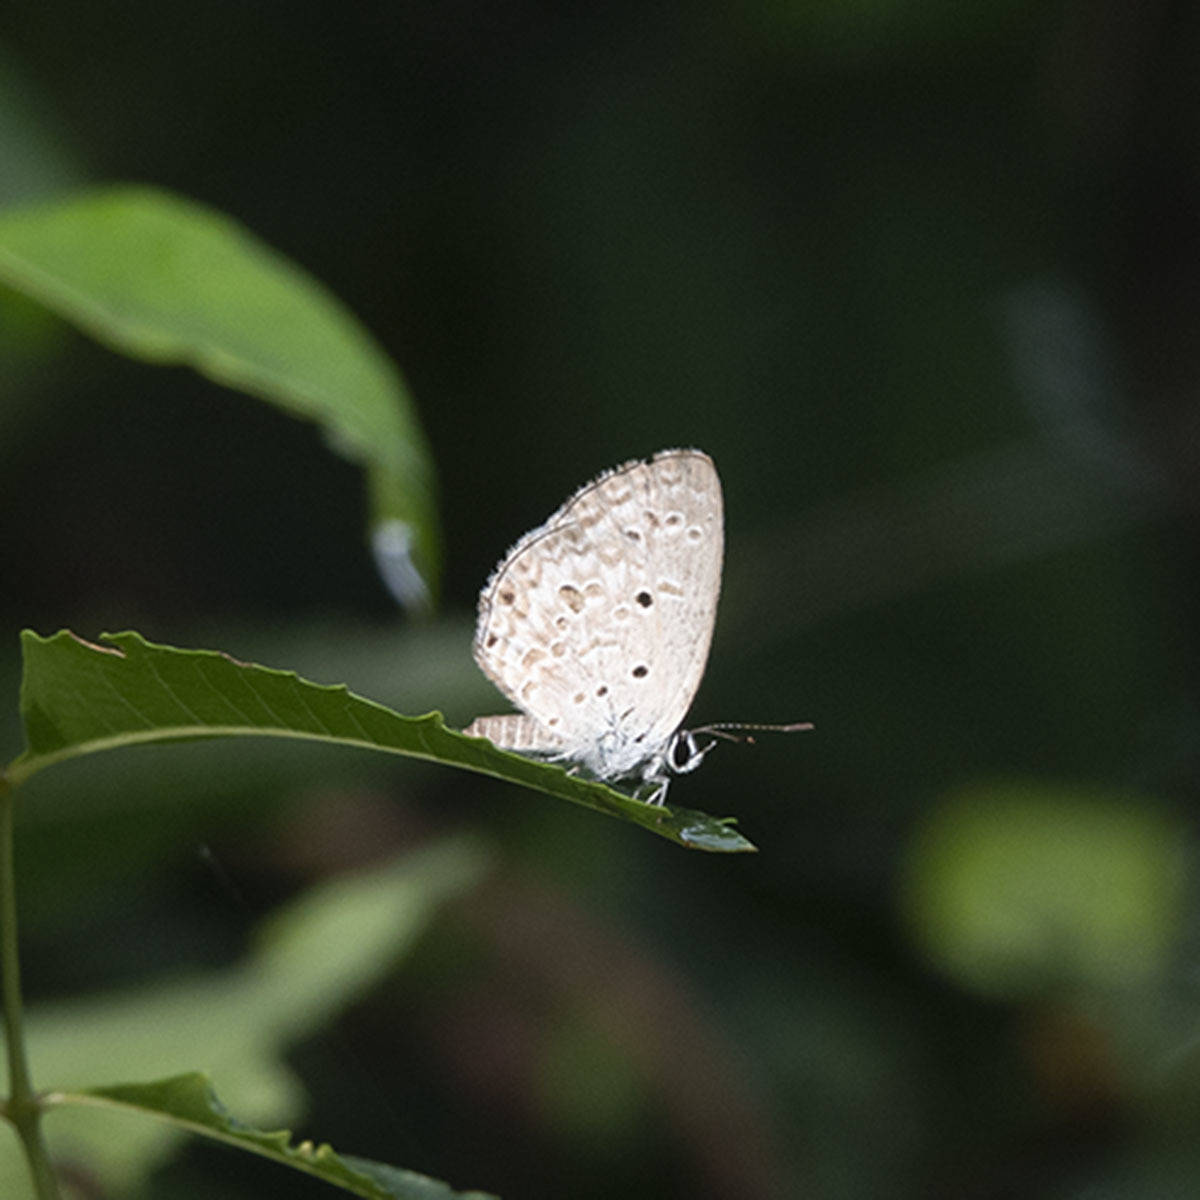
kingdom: Animalia
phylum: Arthropoda
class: Insecta
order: Lepidoptera
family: Lycaenidae
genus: Chilades
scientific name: Chilades laius
